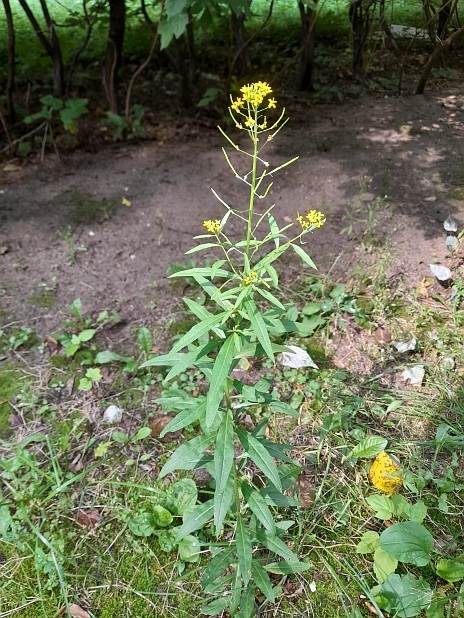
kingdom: Plantae
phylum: Tracheophyta
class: Magnoliopsida
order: Brassicales
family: Brassicaceae
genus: Erysimum
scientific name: Erysimum cheiranthoides
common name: Treacle mustard
